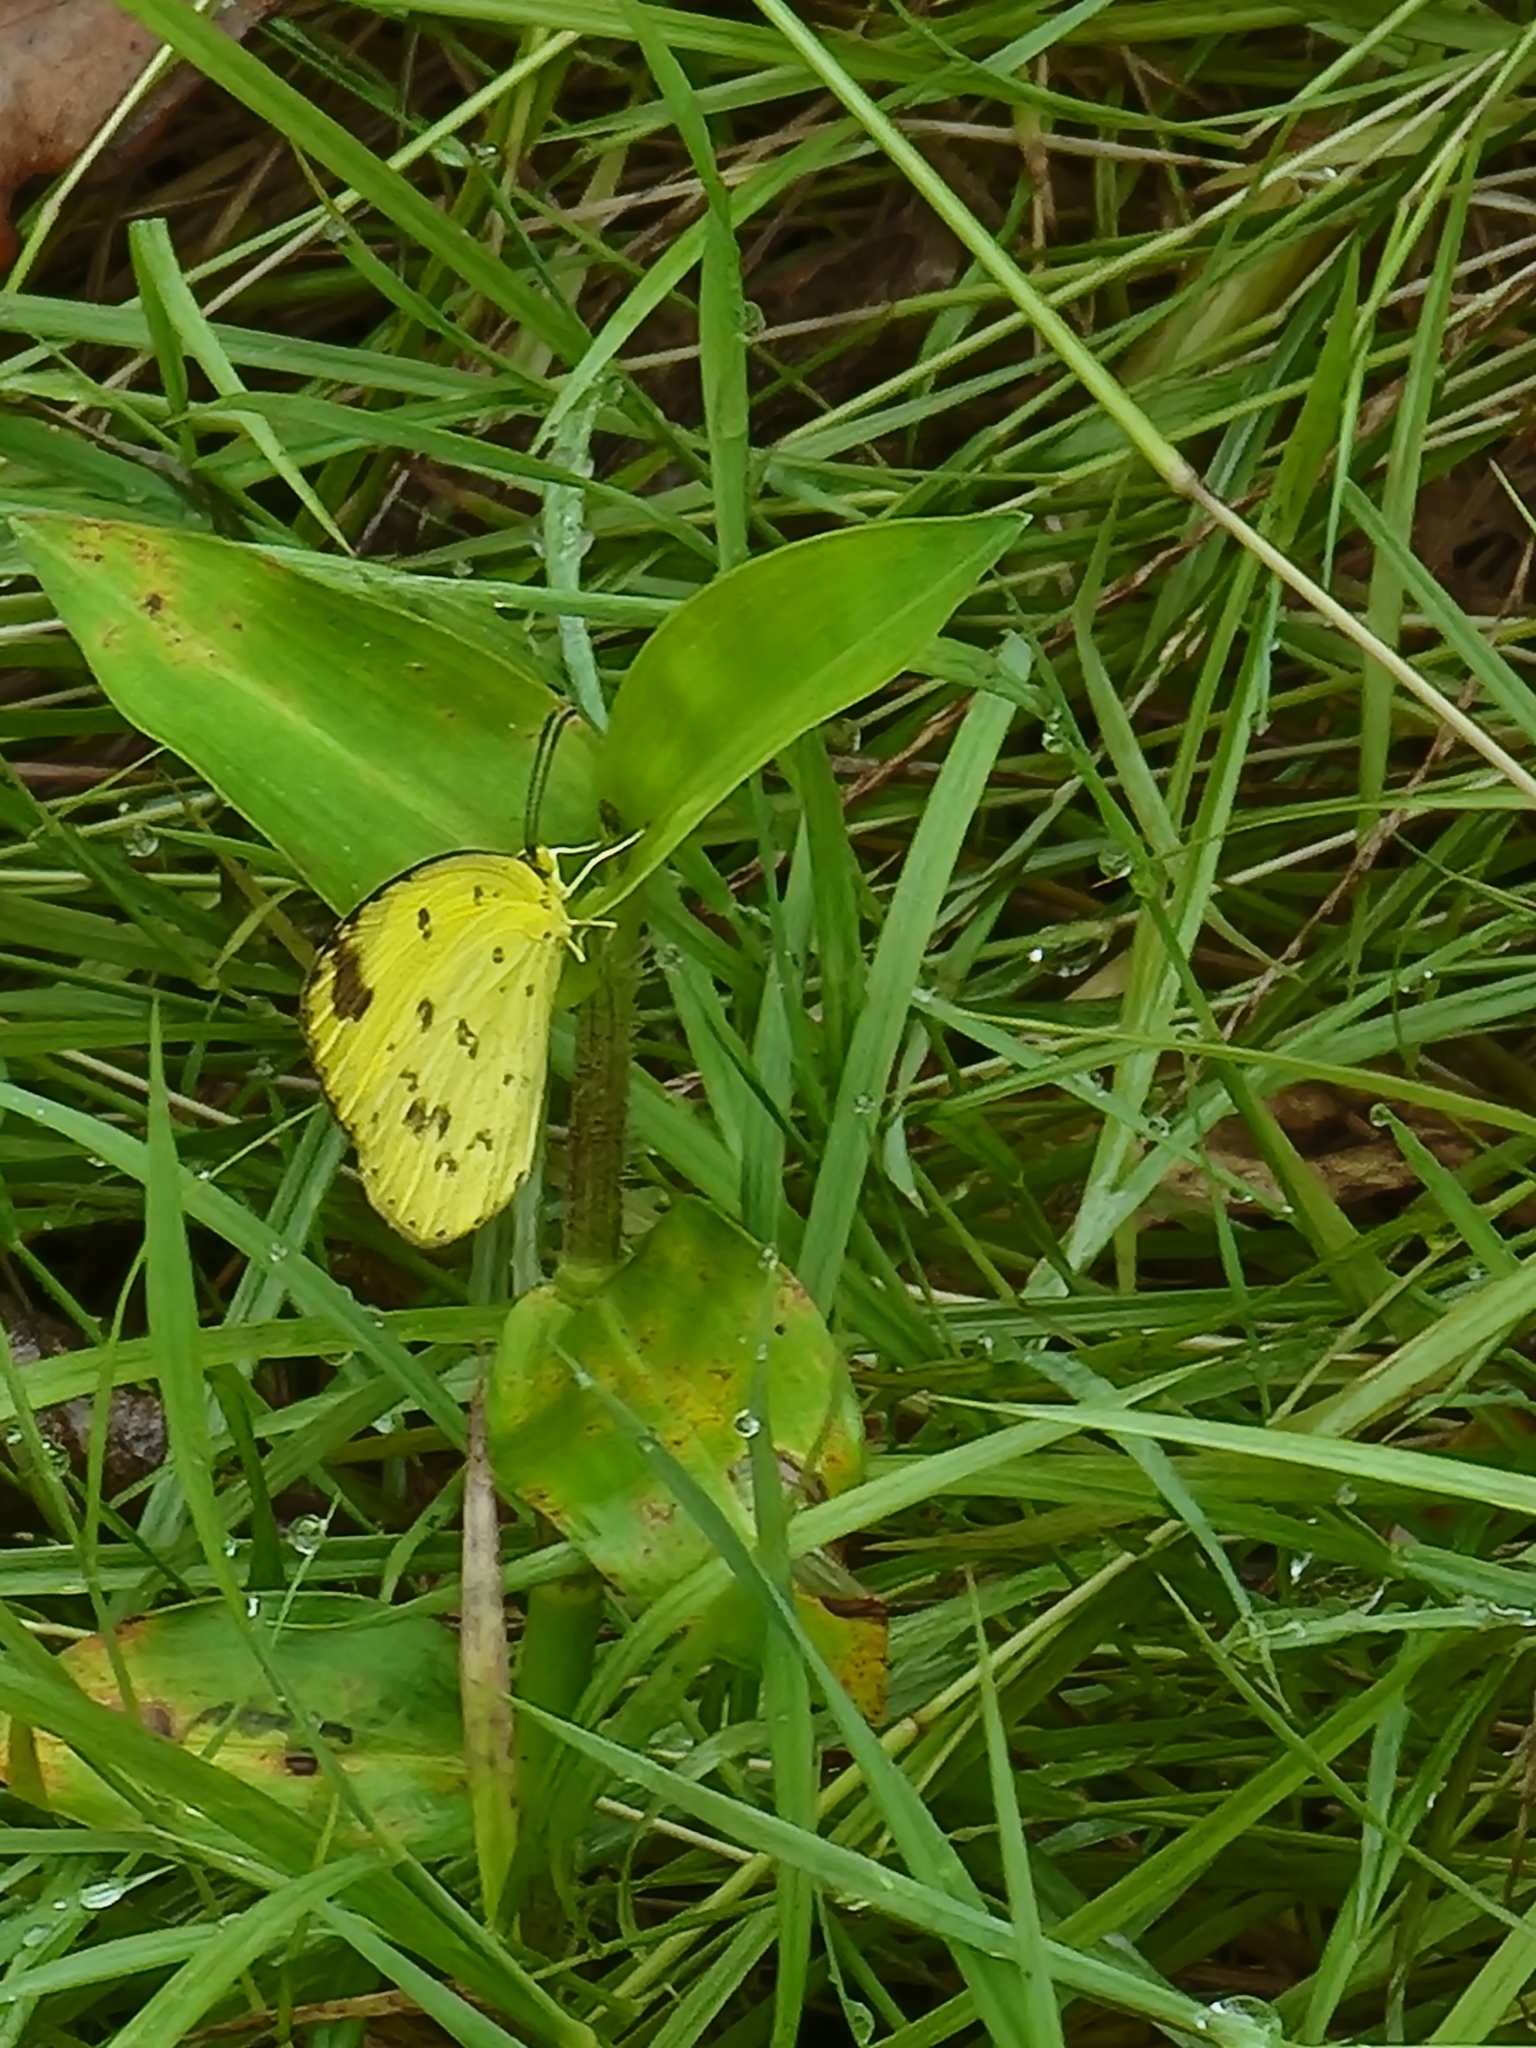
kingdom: Animalia
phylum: Arthropoda
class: Insecta
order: Lepidoptera
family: Pieridae
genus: Eurema
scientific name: Eurema hecabe
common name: Pale grass yellow
